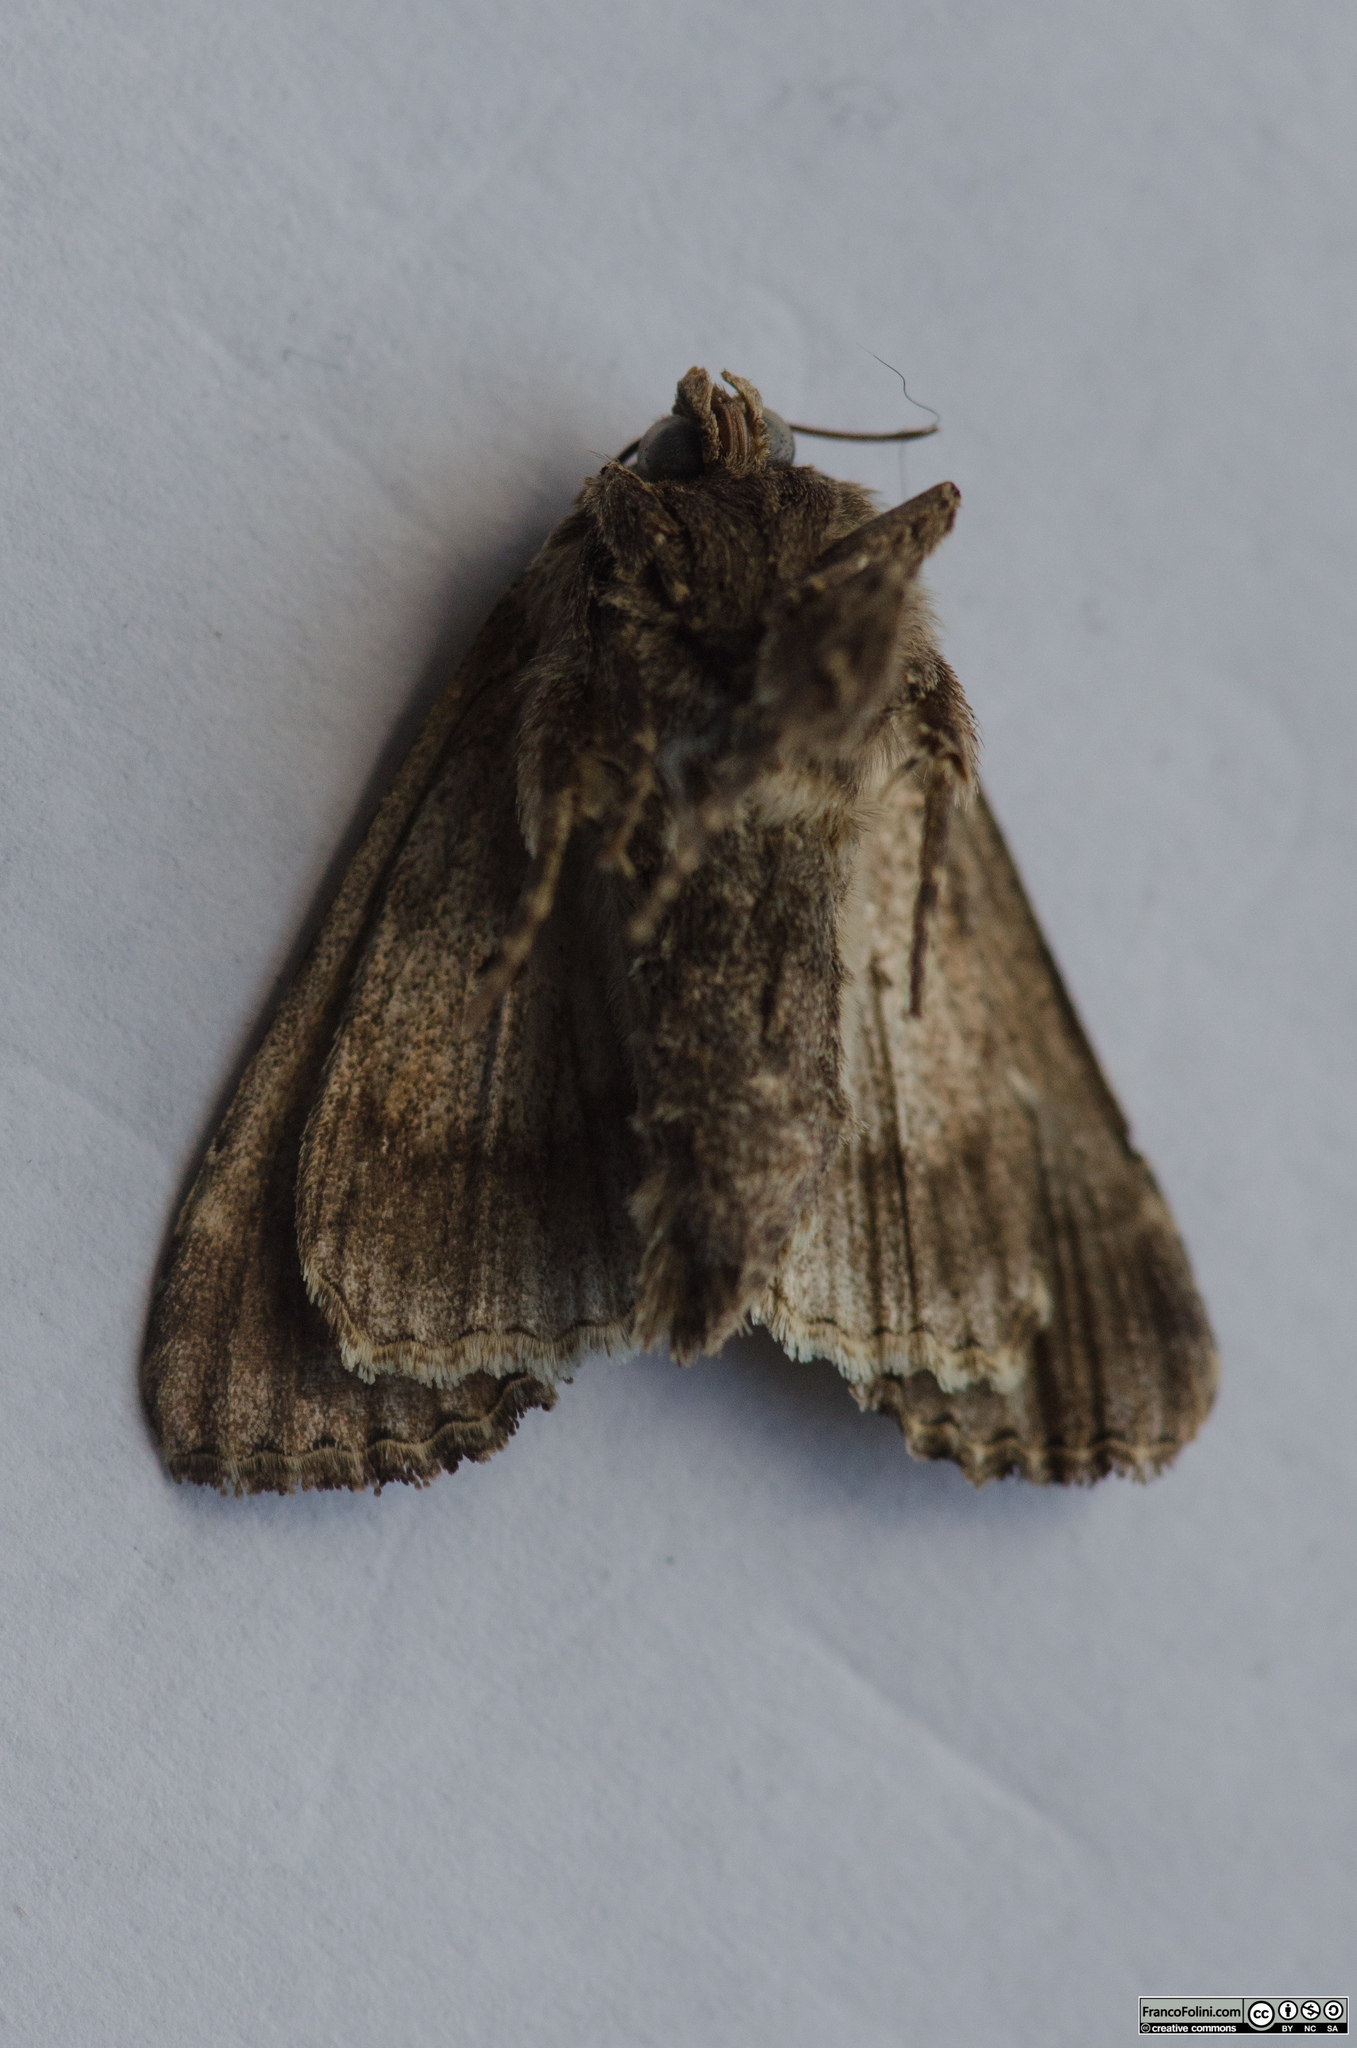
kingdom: Animalia
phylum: Arthropoda
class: Insecta
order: Lepidoptera
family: Noctuidae
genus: Trachea
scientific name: Trachea atriplicis
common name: Orache moth
